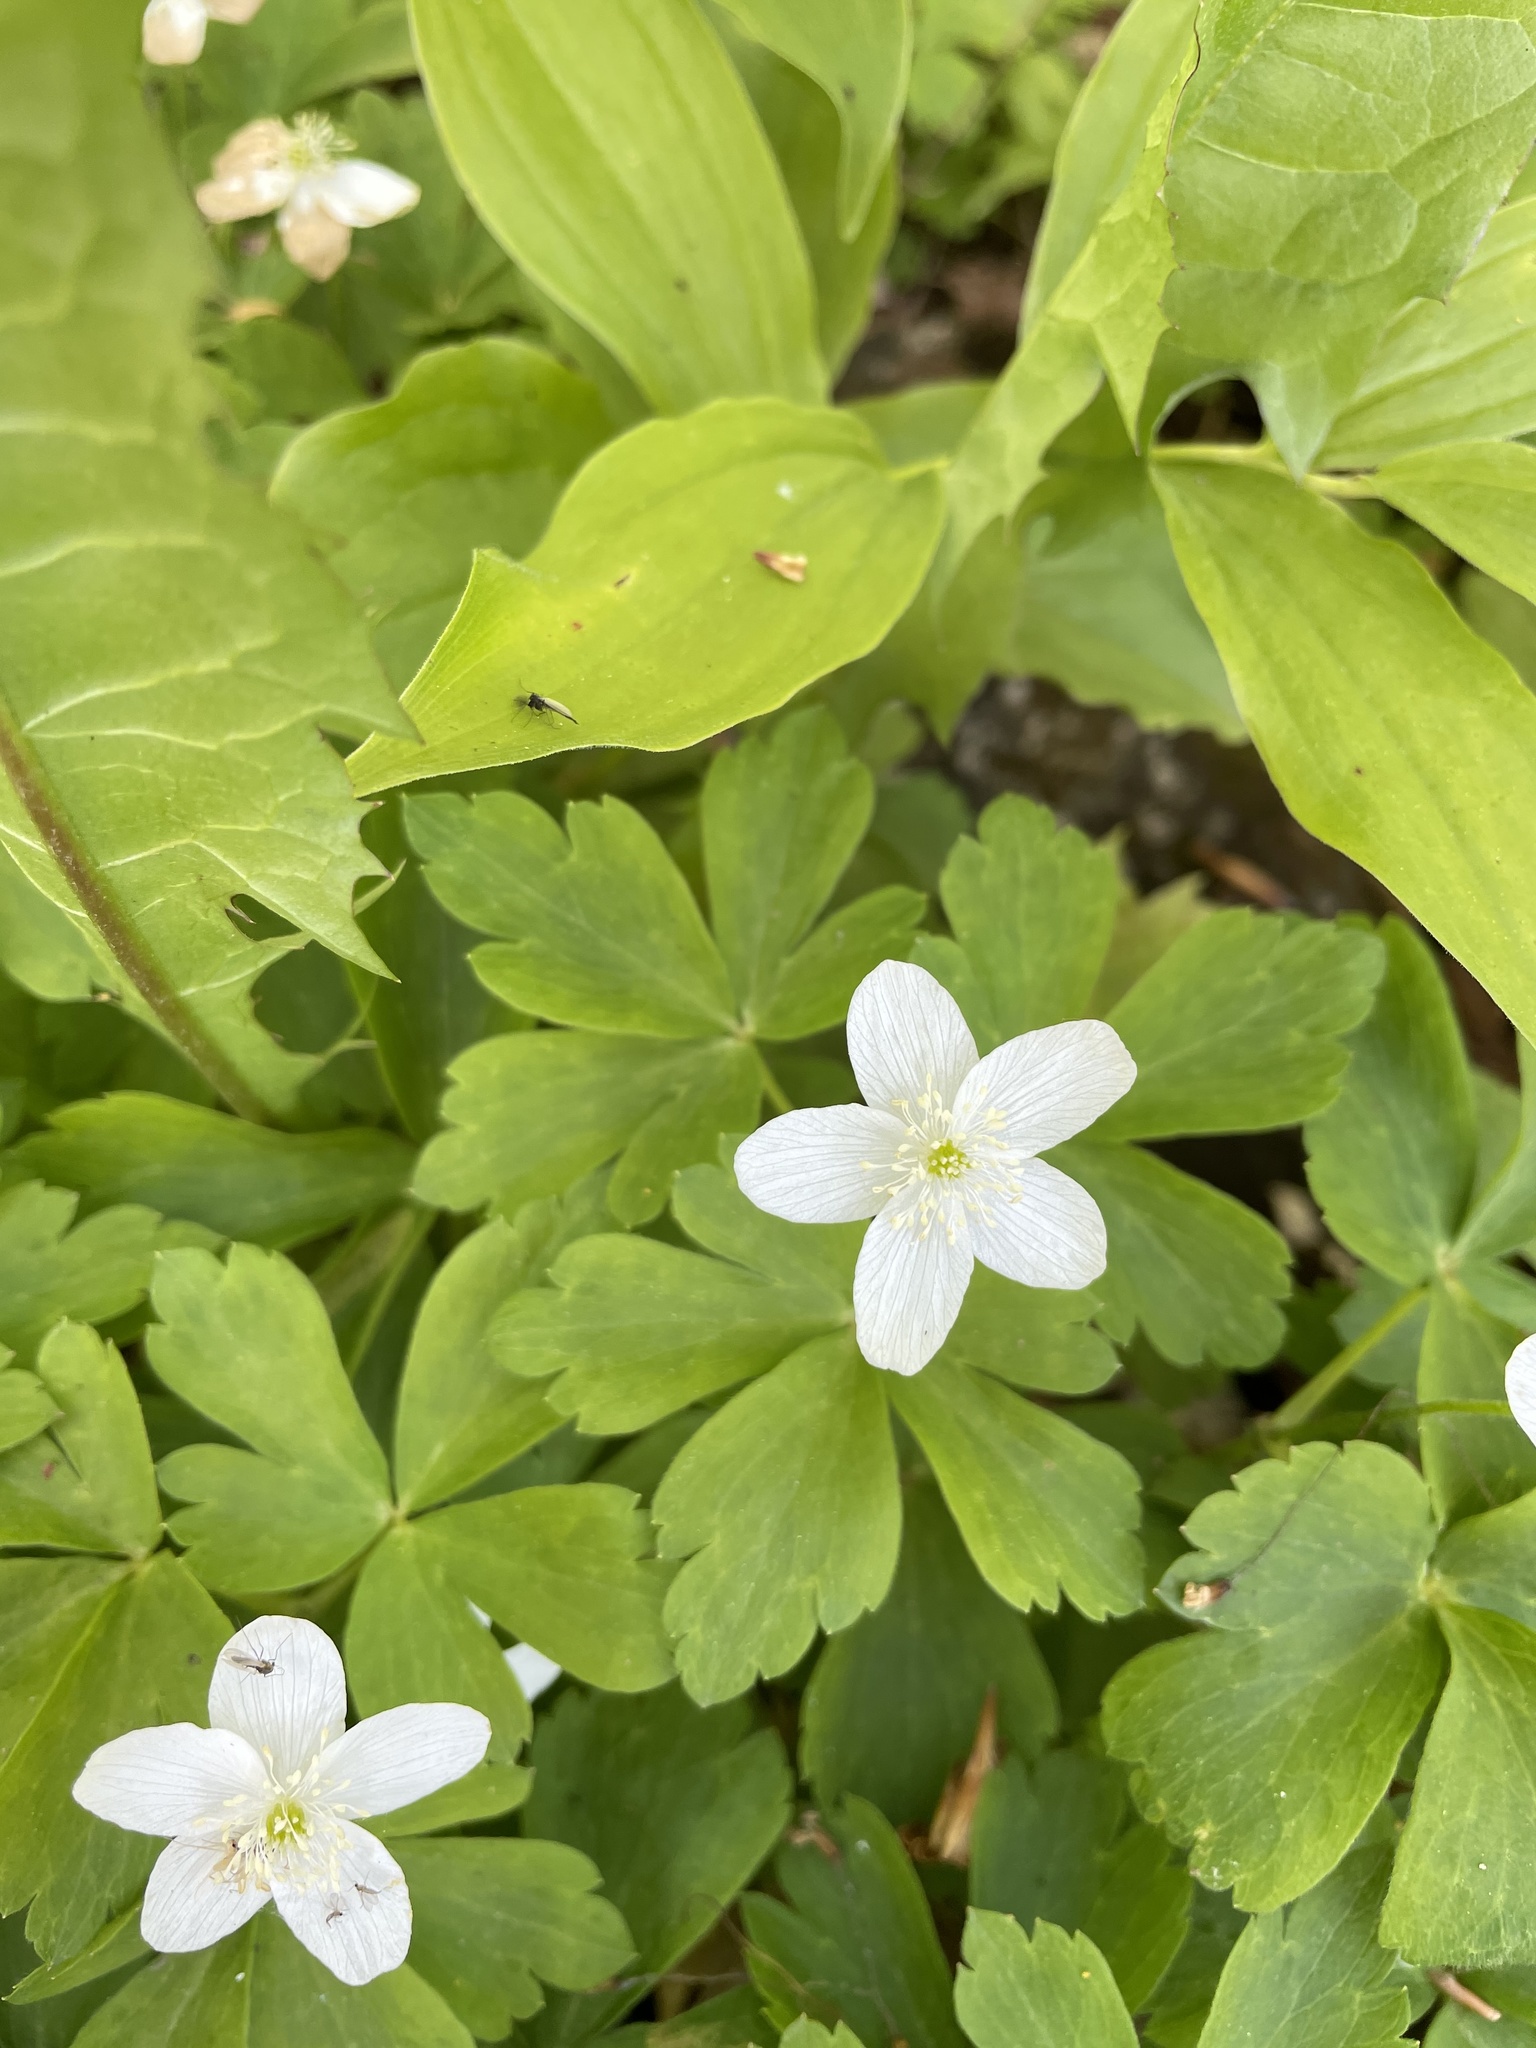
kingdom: Plantae
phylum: Tracheophyta
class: Magnoliopsida
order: Ranunculales
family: Ranunculaceae
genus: Anemone
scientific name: Anemone quinquefolia
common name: Wood anemone
